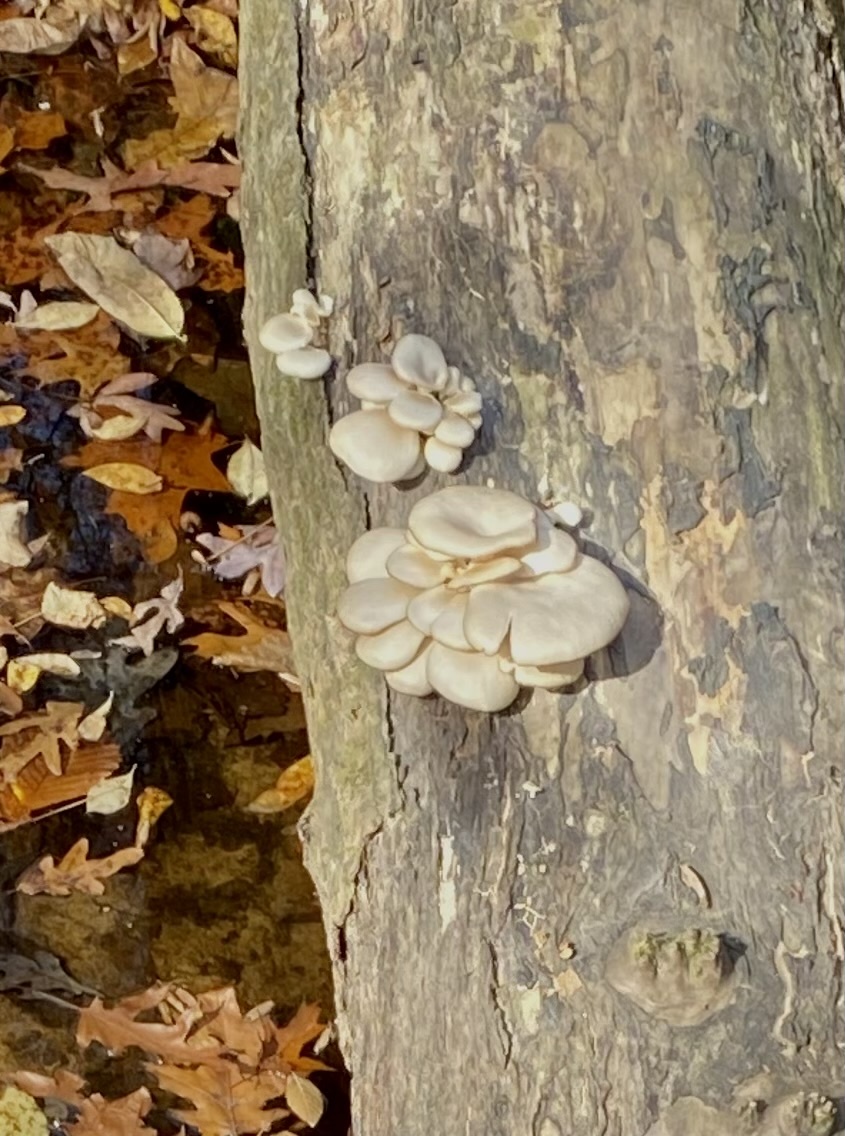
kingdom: Fungi
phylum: Basidiomycota
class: Agaricomycetes
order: Agaricales
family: Pleurotaceae
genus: Pleurotus
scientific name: Pleurotus ostreatus
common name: Oyster mushroom
